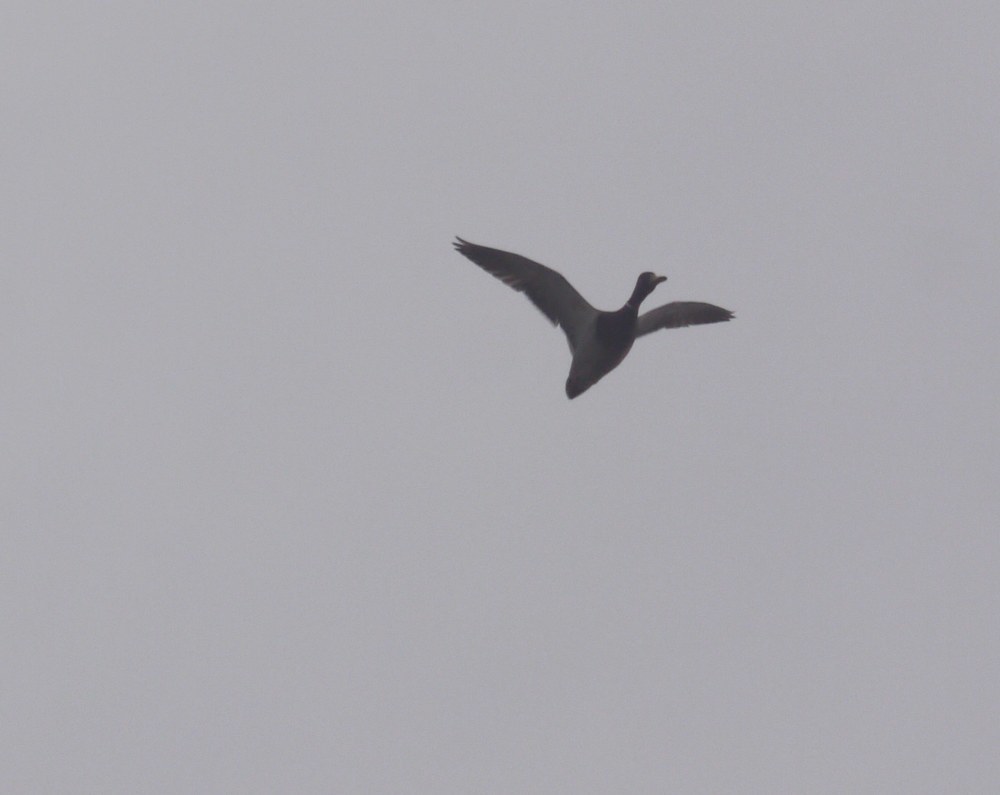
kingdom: Animalia
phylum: Chordata
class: Aves
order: Anseriformes
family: Anatidae
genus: Anas
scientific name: Anas platyrhynchos
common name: Mallard
